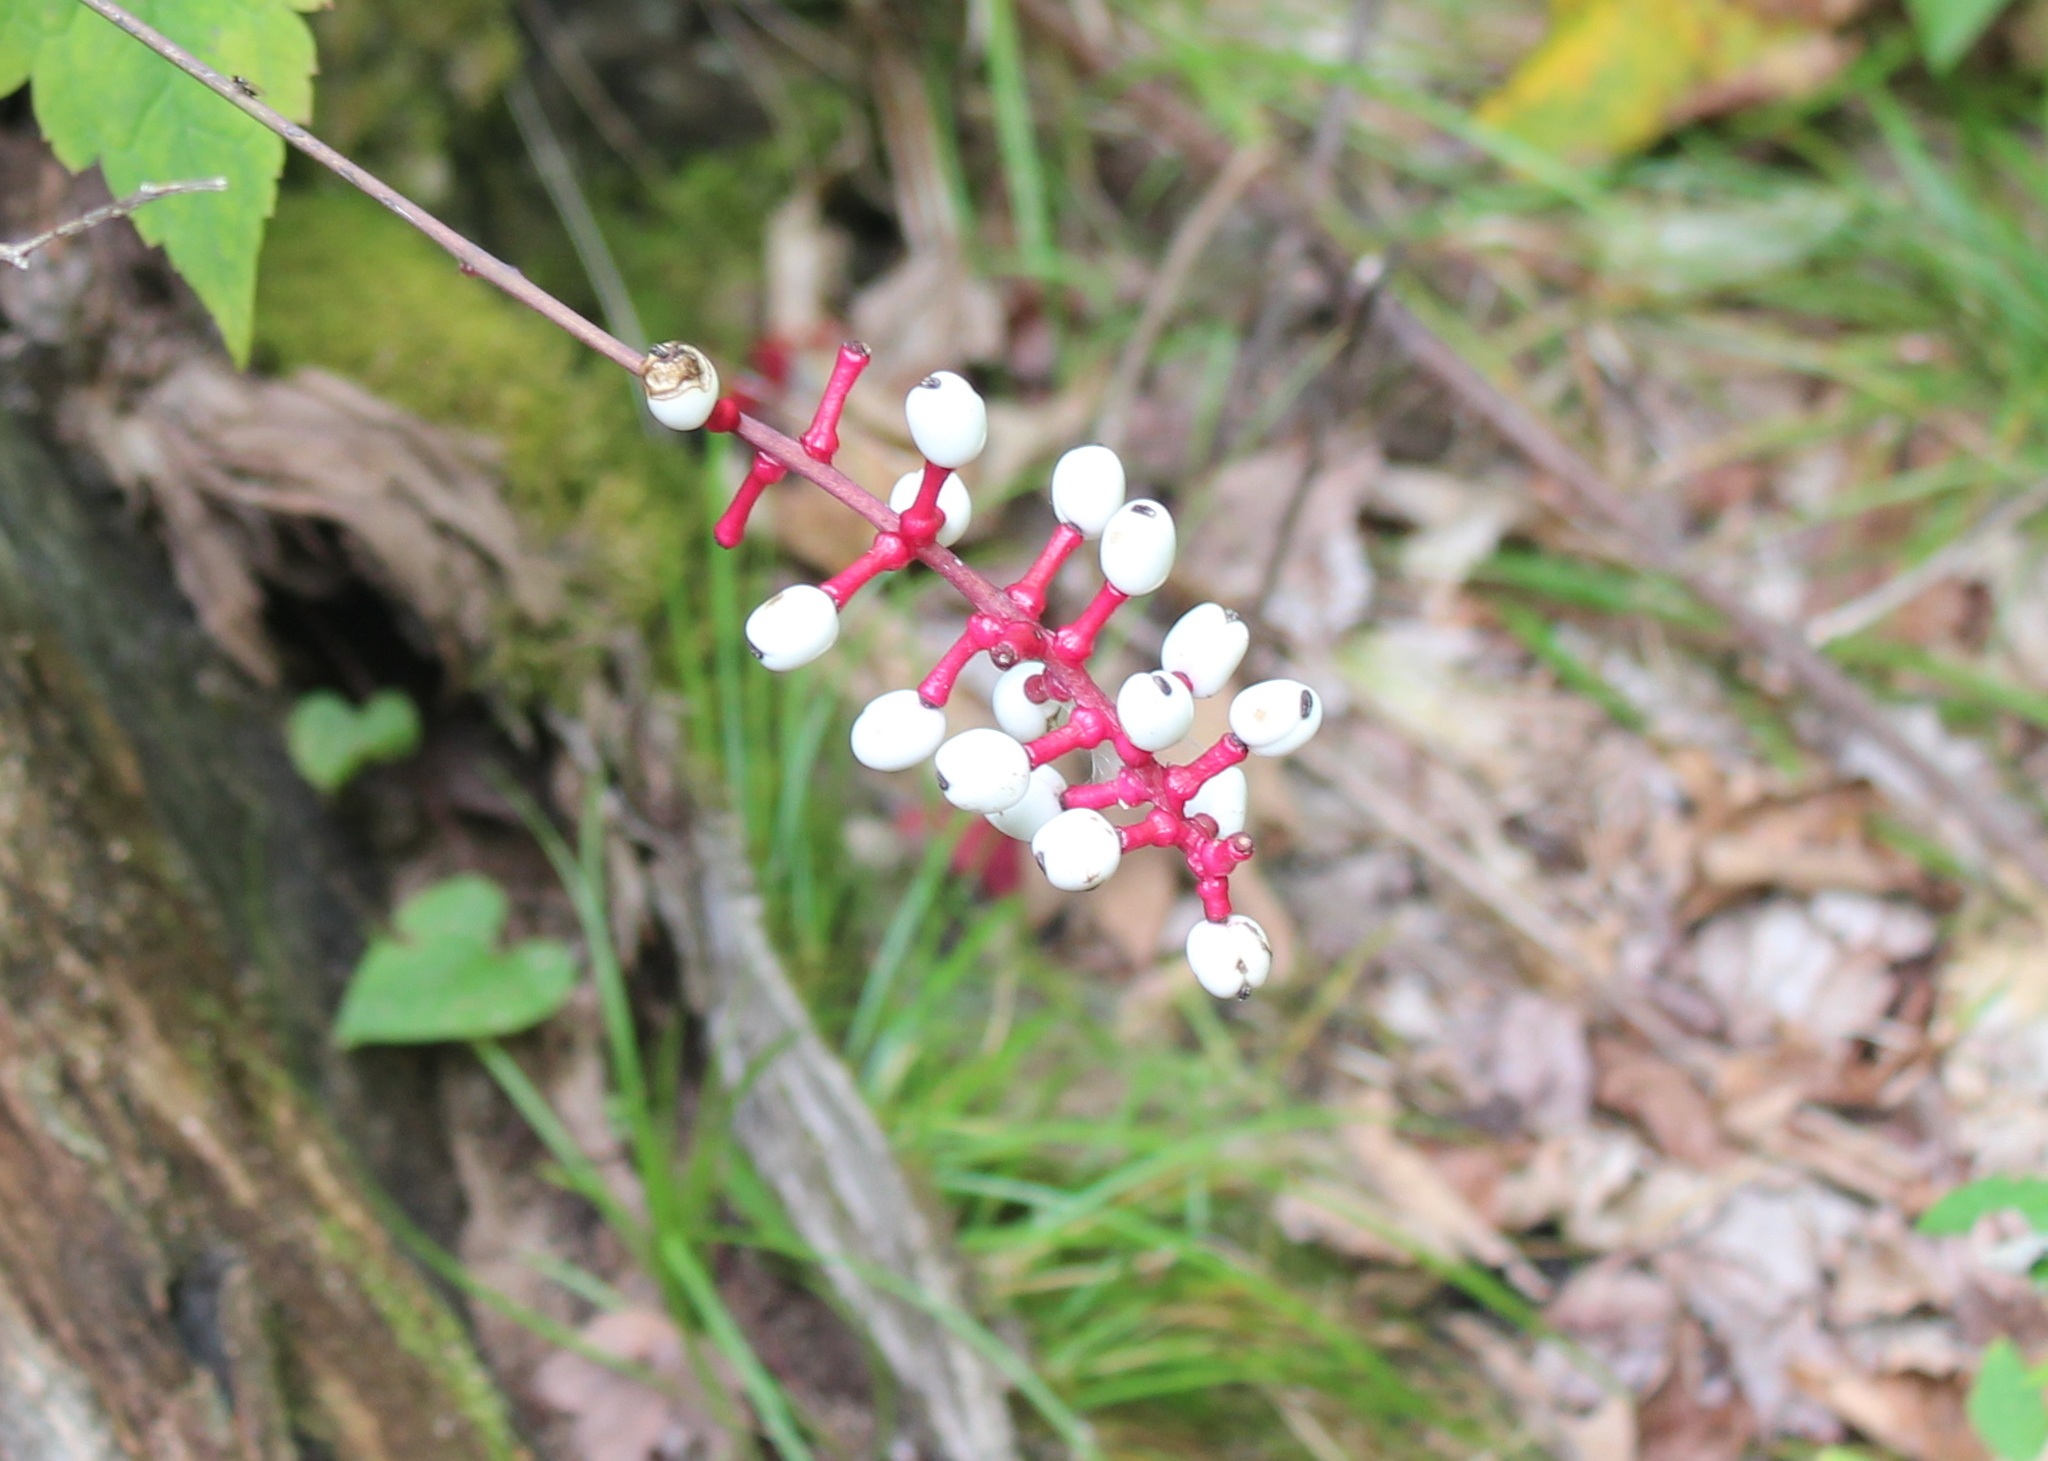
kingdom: Plantae
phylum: Tracheophyta
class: Magnoliopsida
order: Ranunculales
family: Ranunculaceae
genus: Actaea
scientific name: Actaea pachypoda
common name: Doll's-eyes
